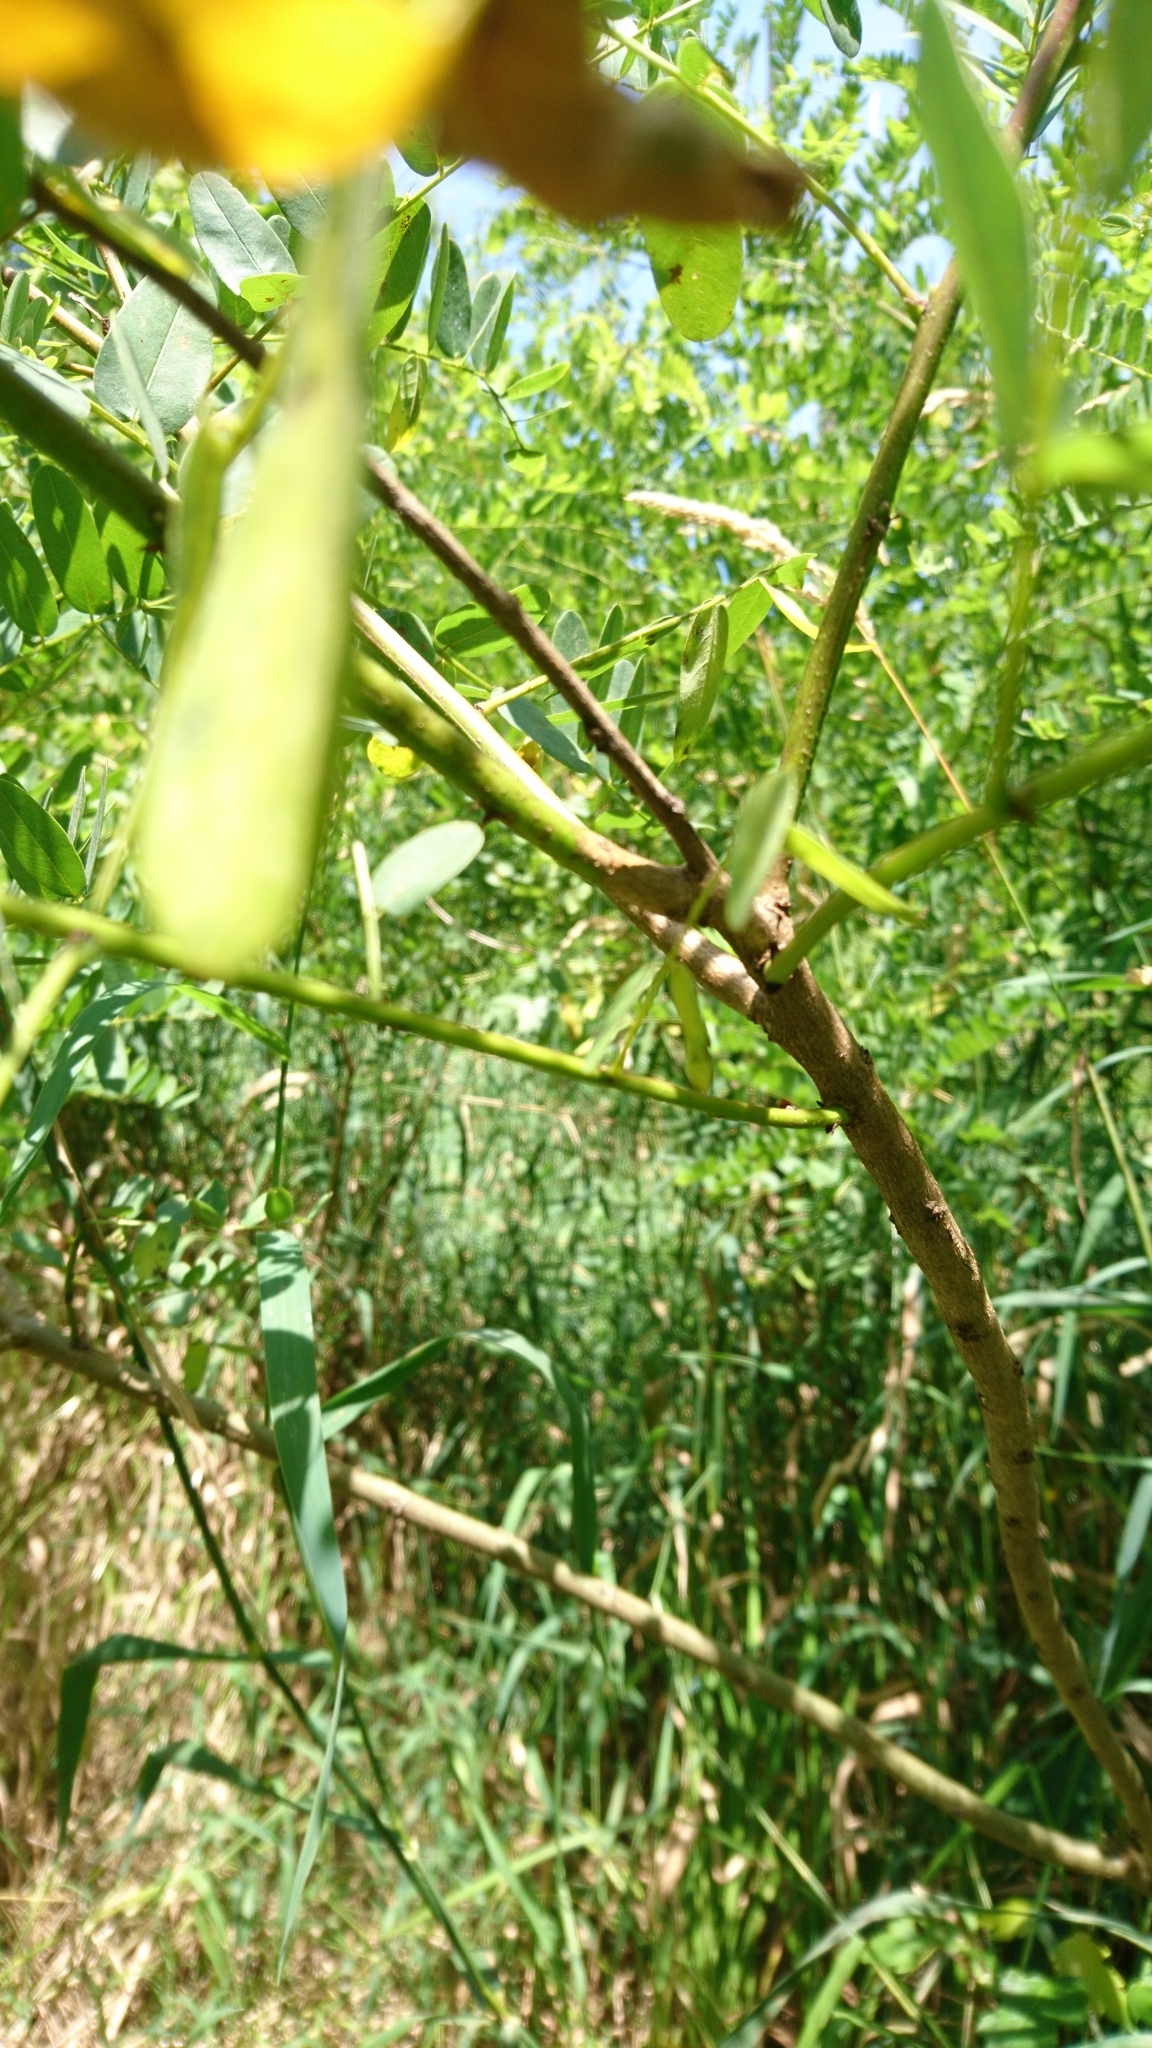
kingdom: Plantae
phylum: Tracheophyta
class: Magnoliopsida
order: Fabales
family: Fabaceae
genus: Amorpha
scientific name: Amorpha fruticosa
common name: False indigo
